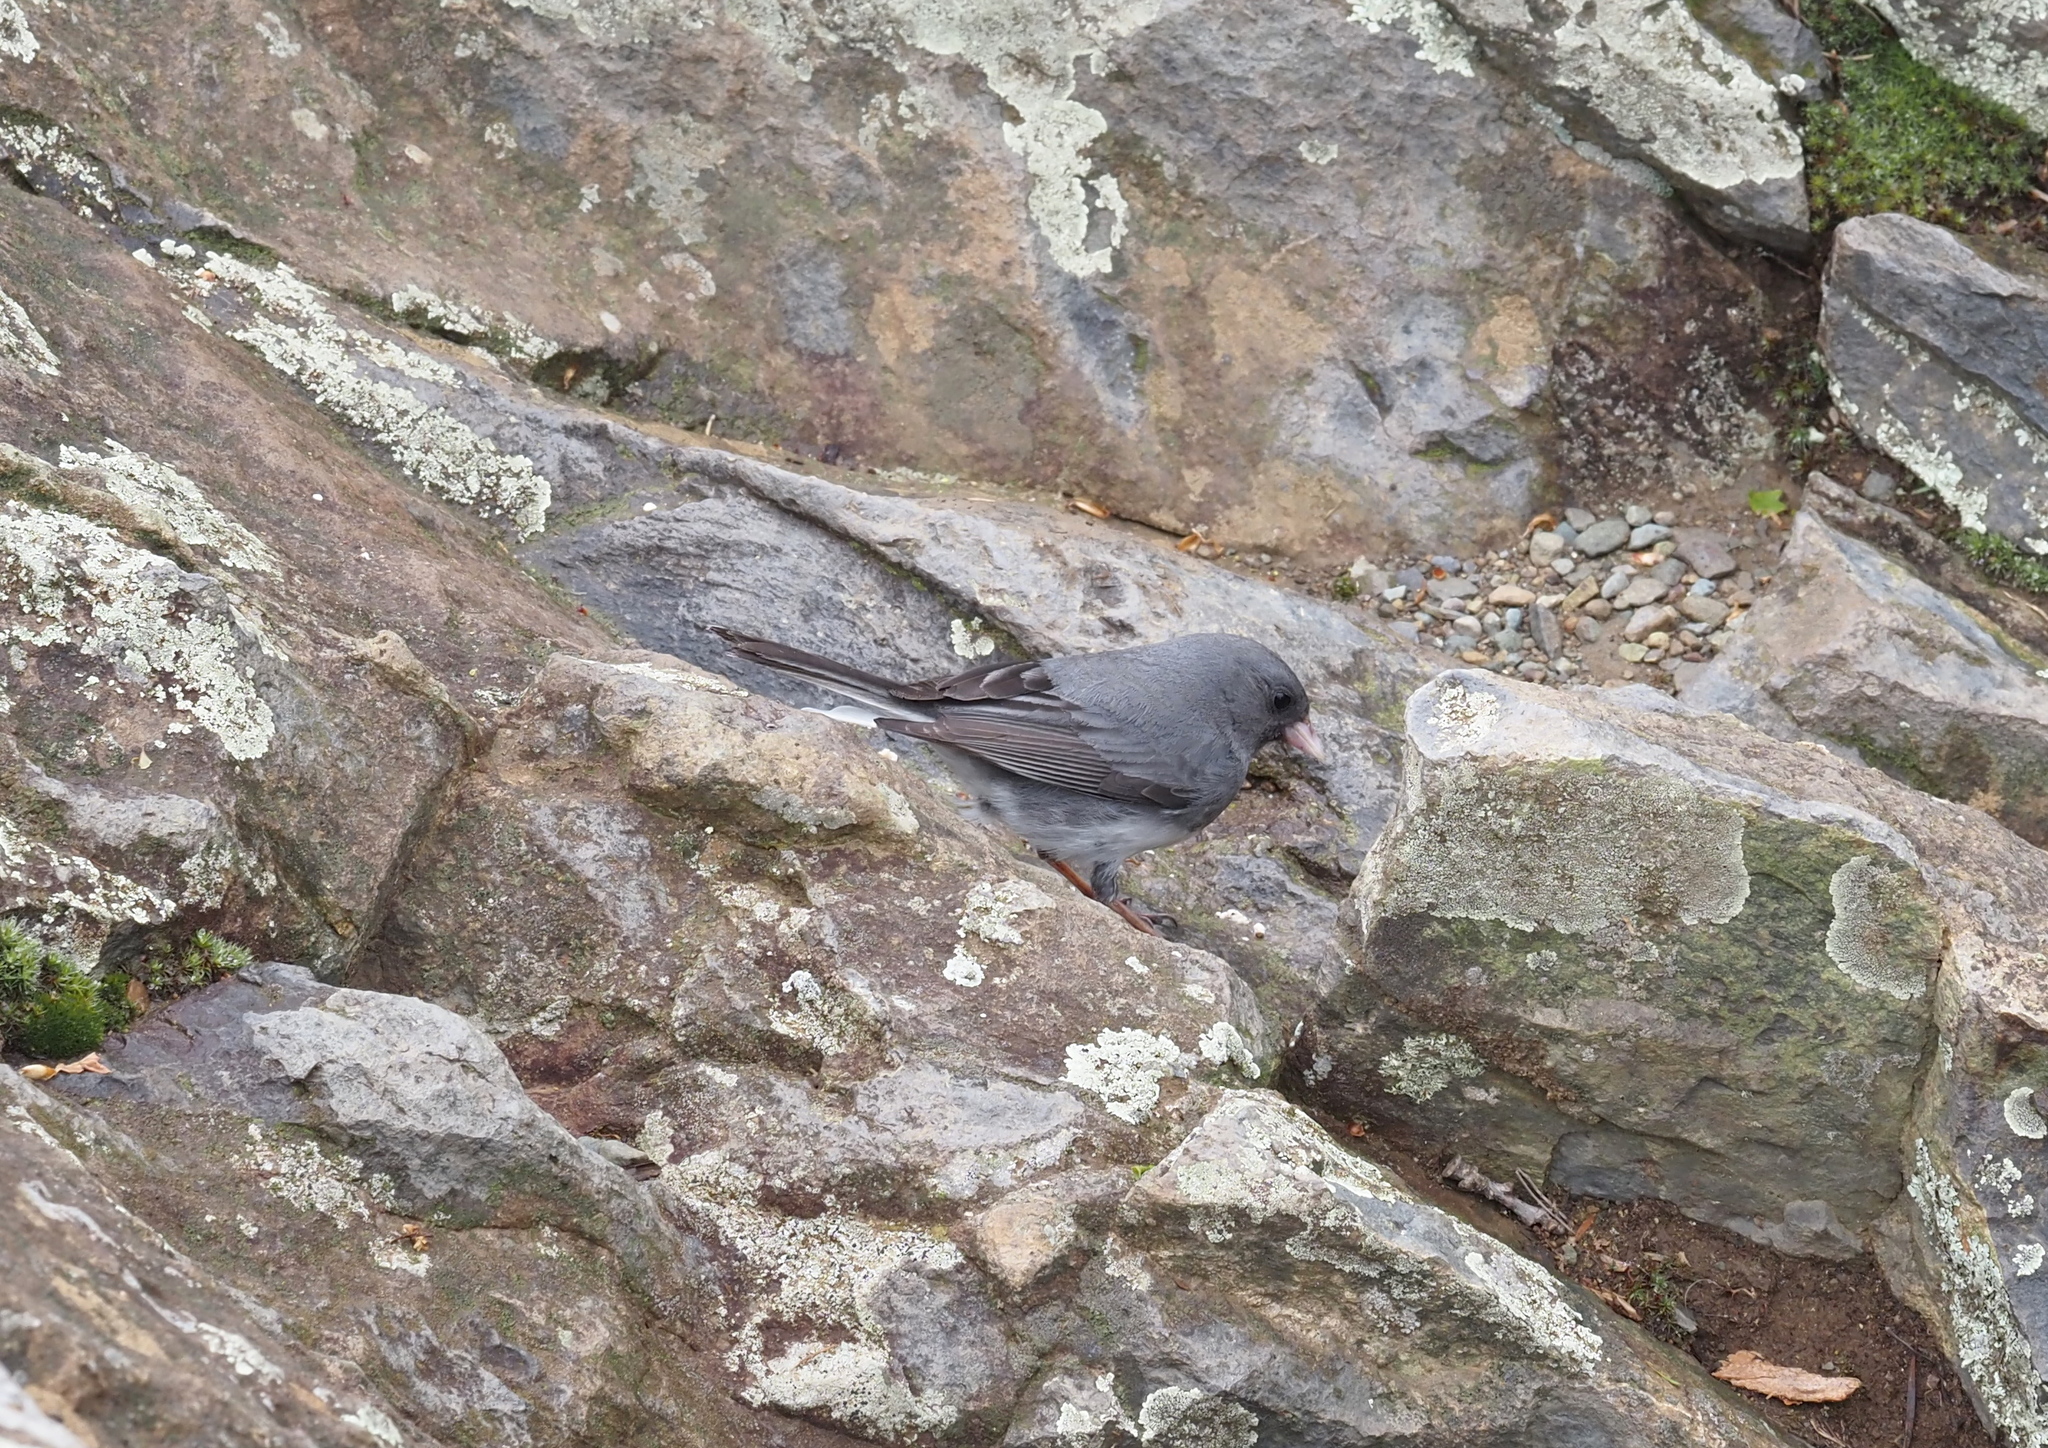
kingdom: Animalia
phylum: Chordata
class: Aves
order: Passeriformes
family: Passerellidae
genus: Junco
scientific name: Junco hyemalis
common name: Dark-eyed junco
